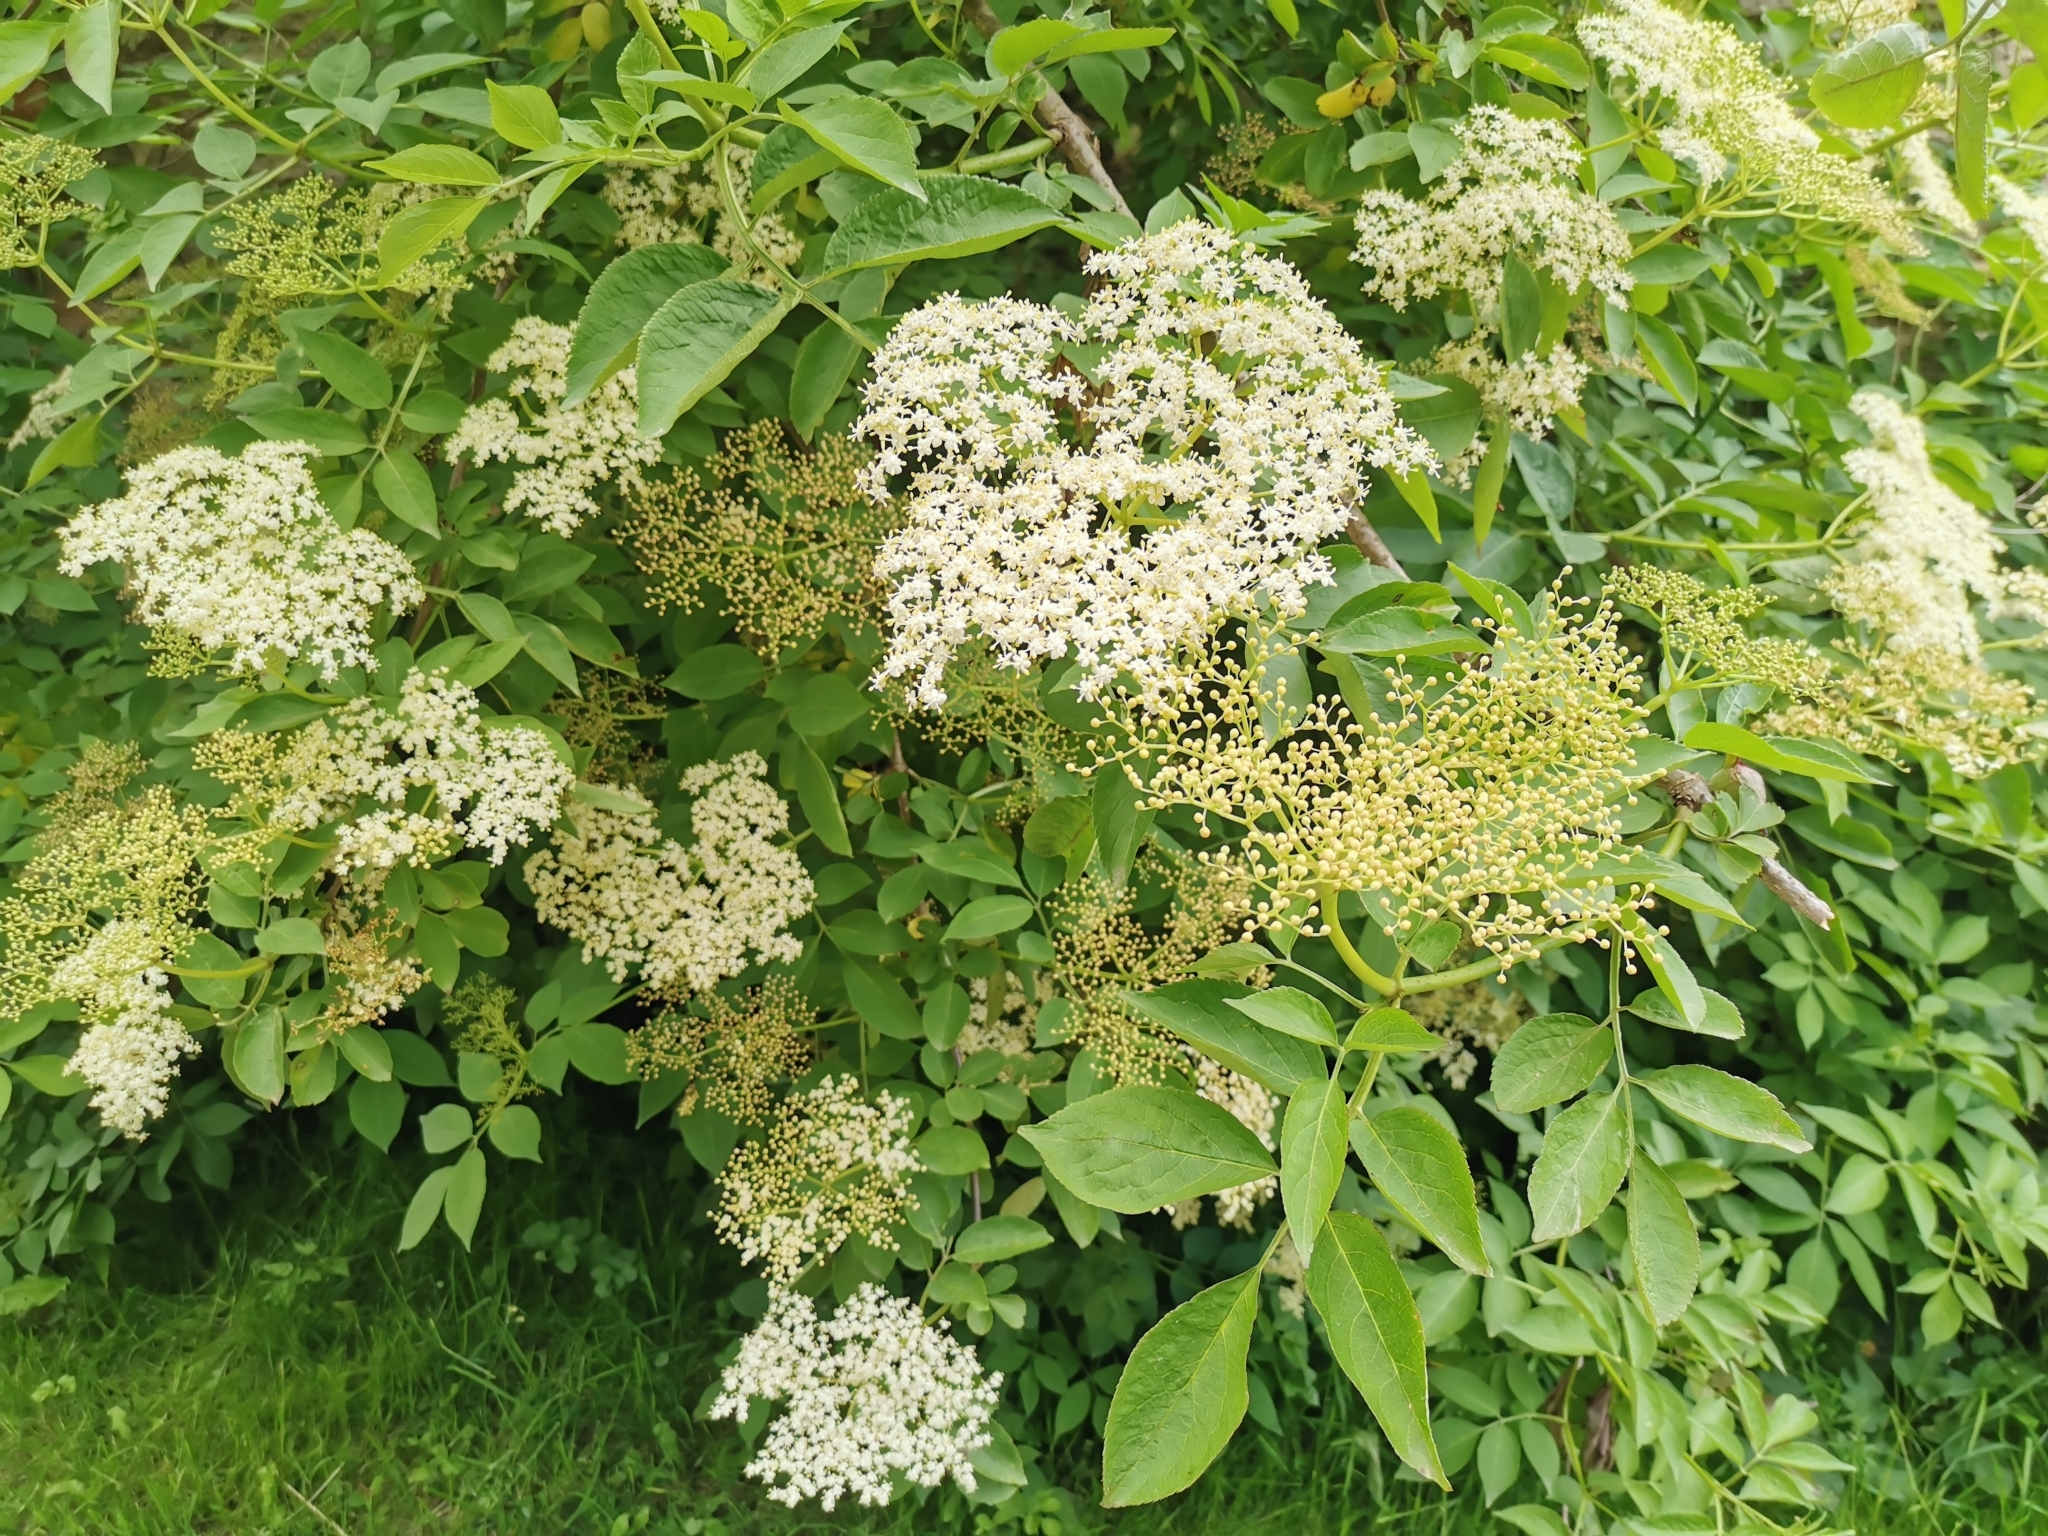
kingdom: Plantae
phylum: Tracheophyta
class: Magnoliopsida
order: Dipsacales
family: Viburnaceae
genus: Sambucus
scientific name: Sambucus nigra
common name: Elder
